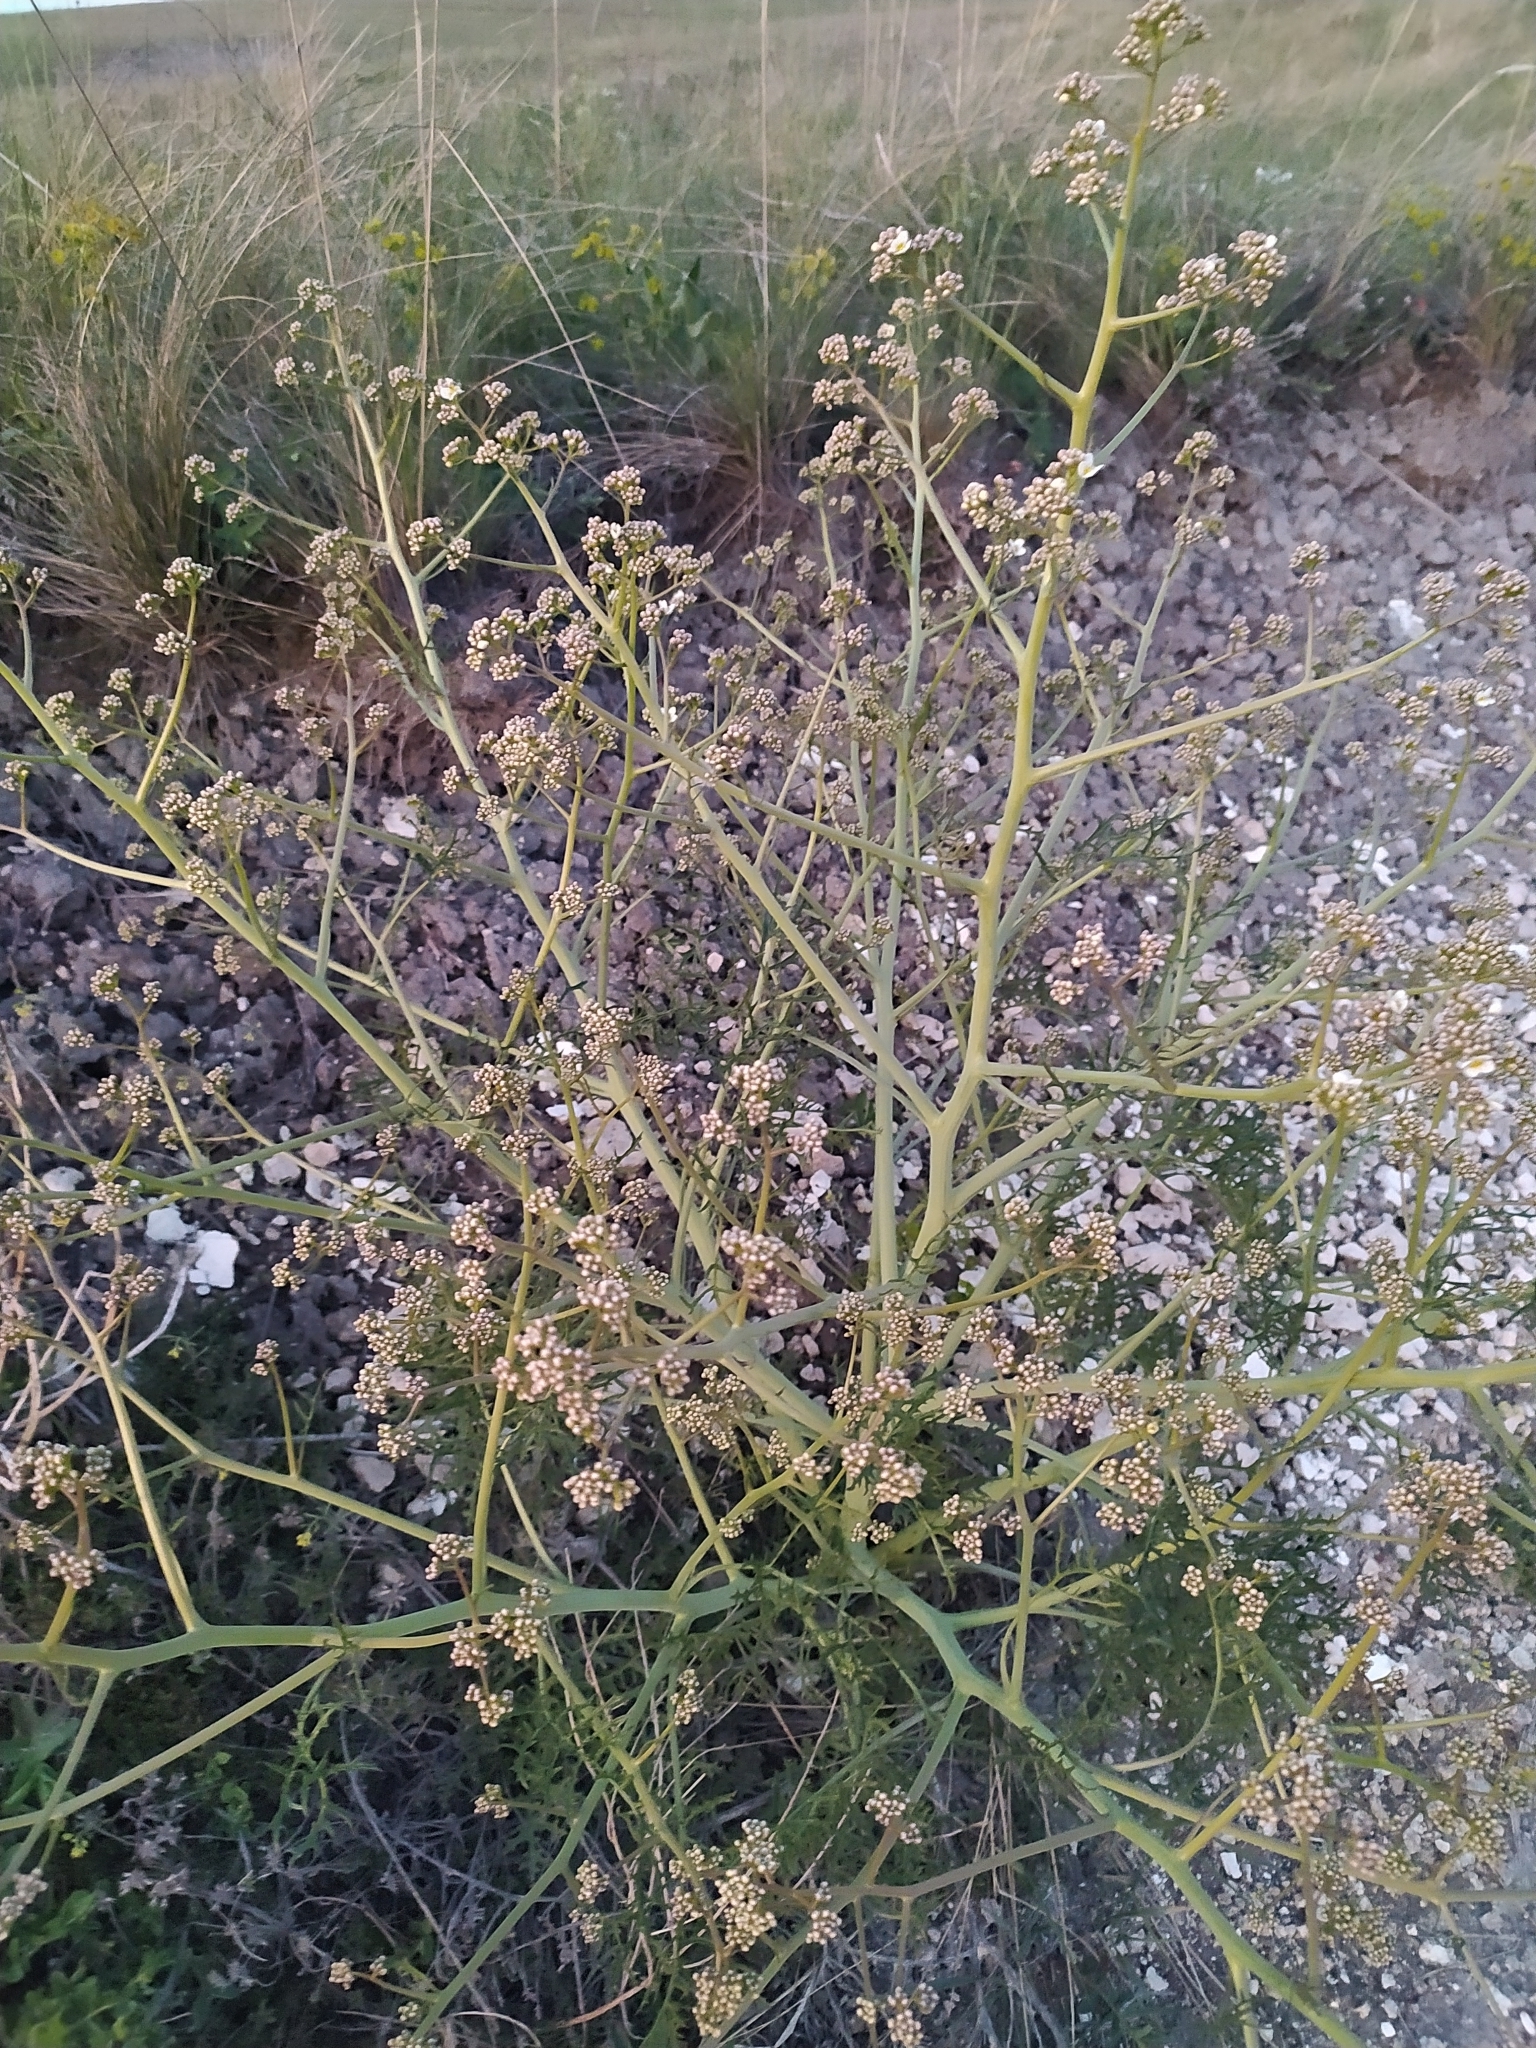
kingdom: Plantae
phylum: Tracheophyta
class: Magnoliopsida
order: Brassicales
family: Brassicaceae
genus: Crambe
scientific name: Crambe tataria
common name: Tartarian breadplant
